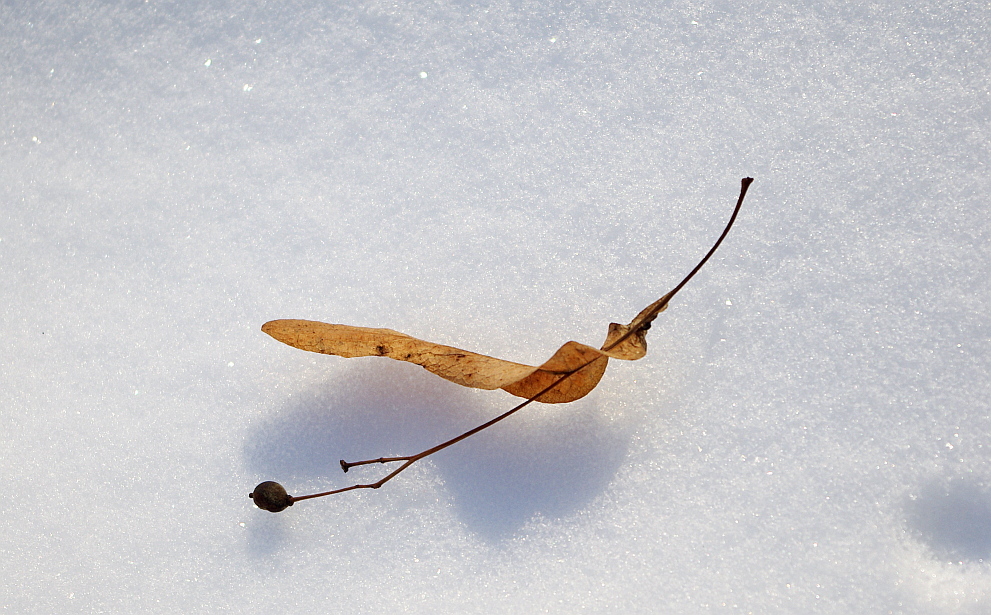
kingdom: Plantae
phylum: Tracheophyta
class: Magnoliopsida
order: Malvales
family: Malvaceae
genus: Tilia
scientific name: Tilia cordata
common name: Small-leaved lime
